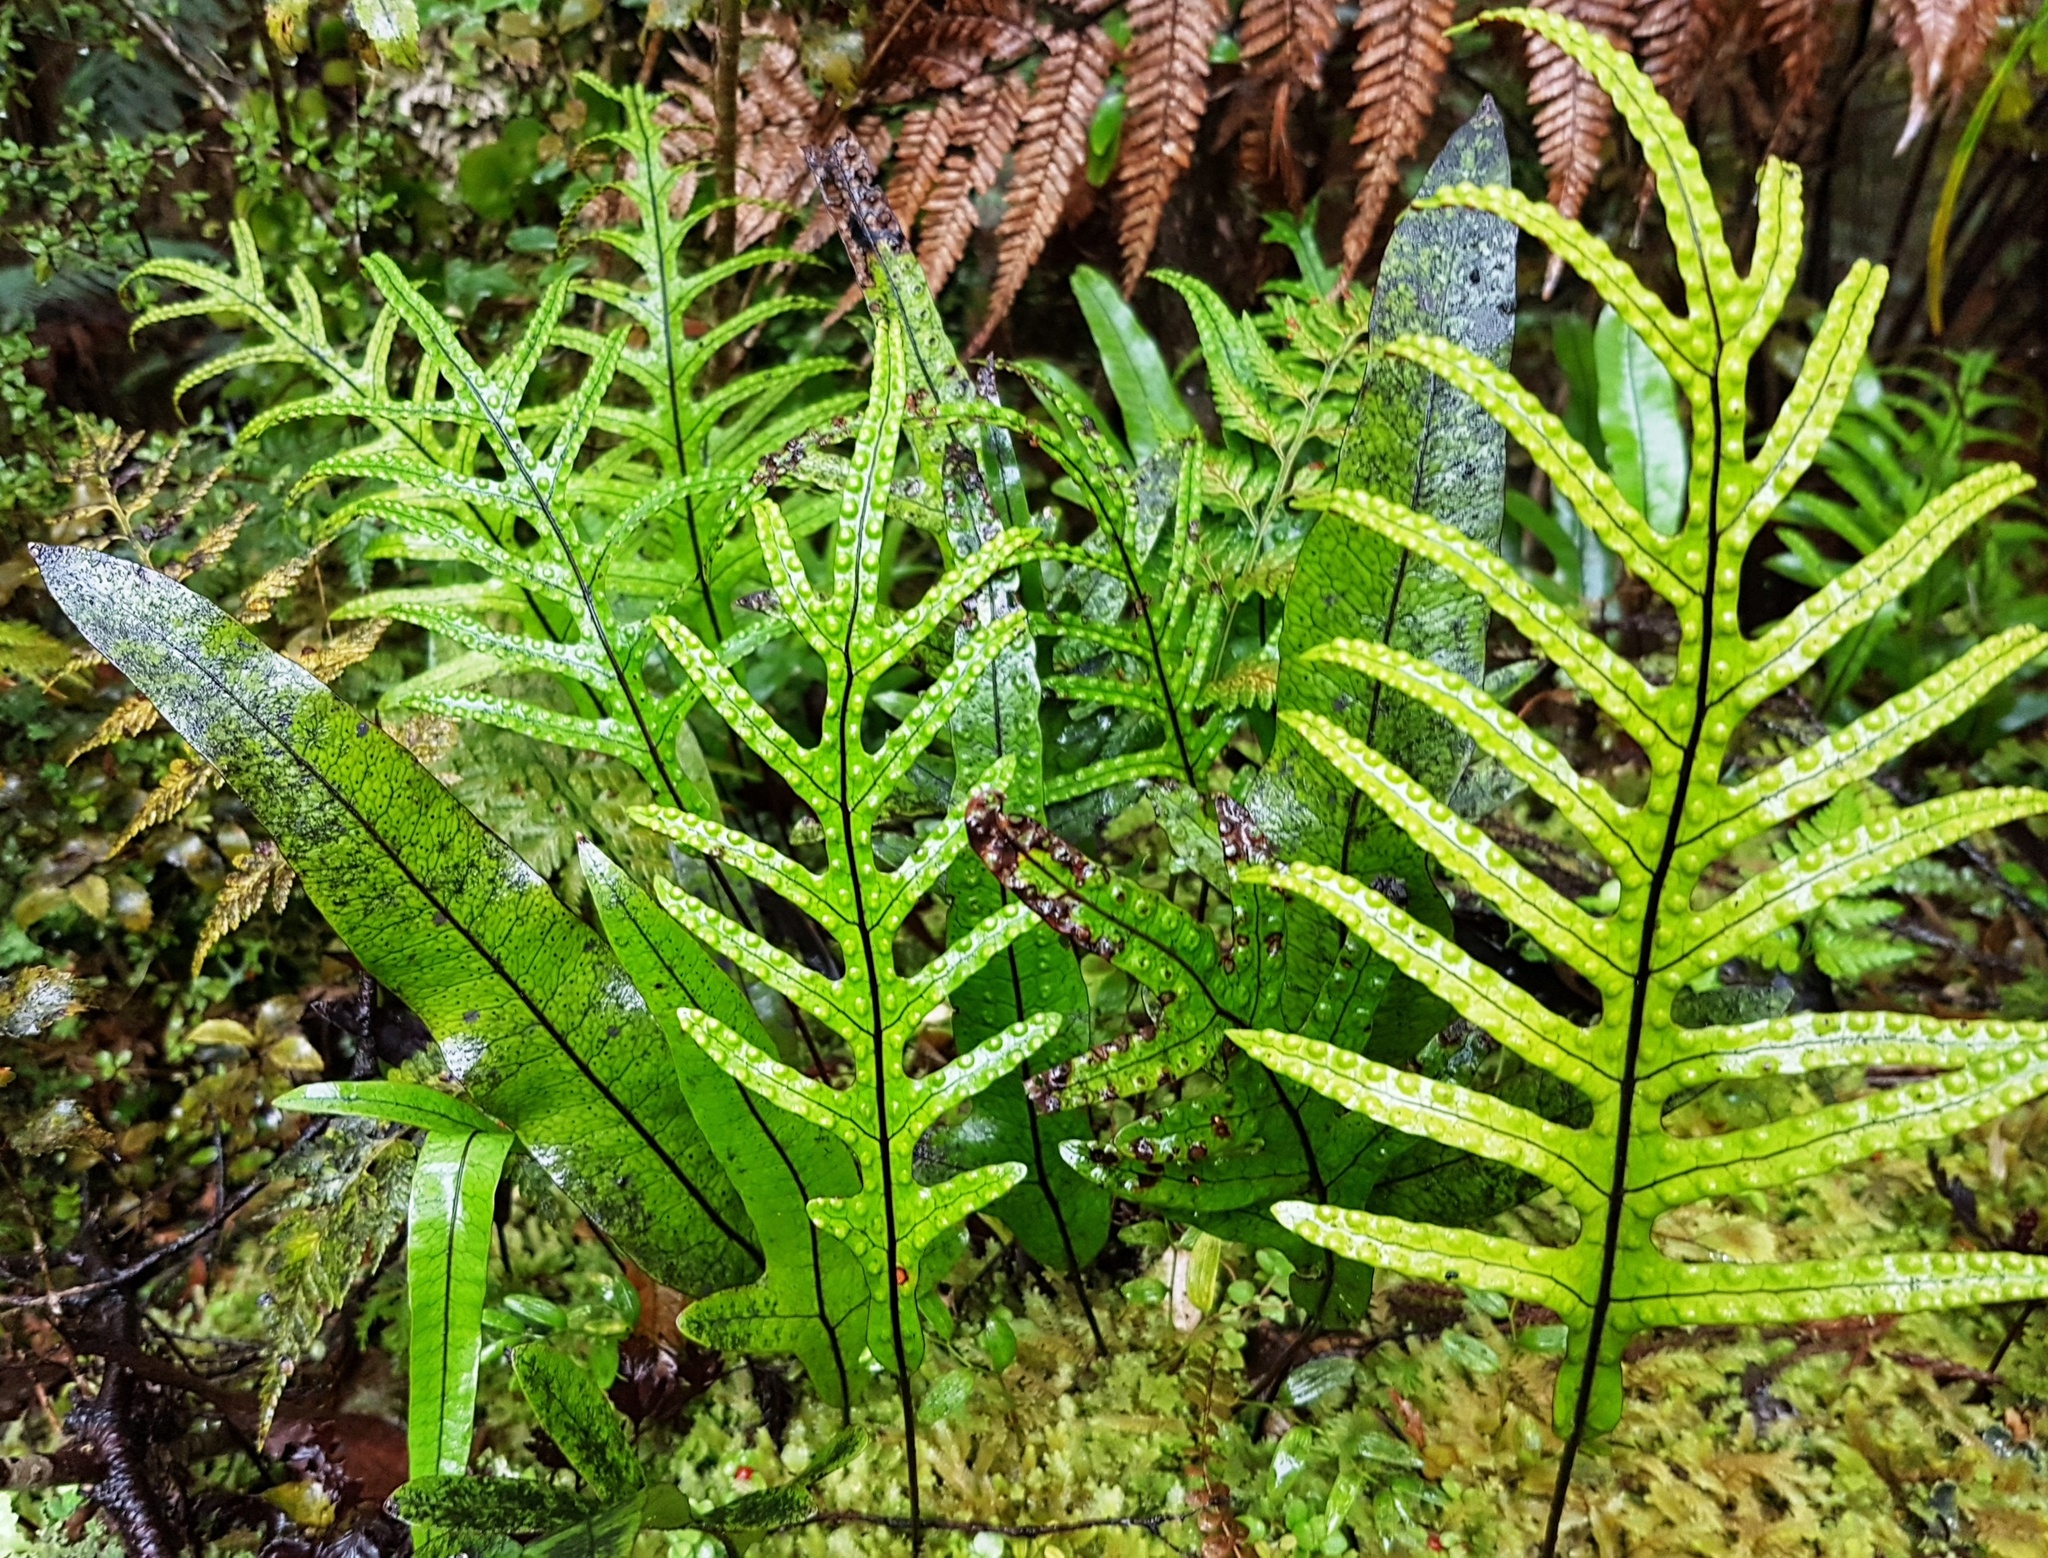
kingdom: Plantae
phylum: Tracheophyta
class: Polypodiopsida
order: Polypodiales
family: Polypodiaceae
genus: Lecanopteris
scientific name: Lecanopteris pustulata
